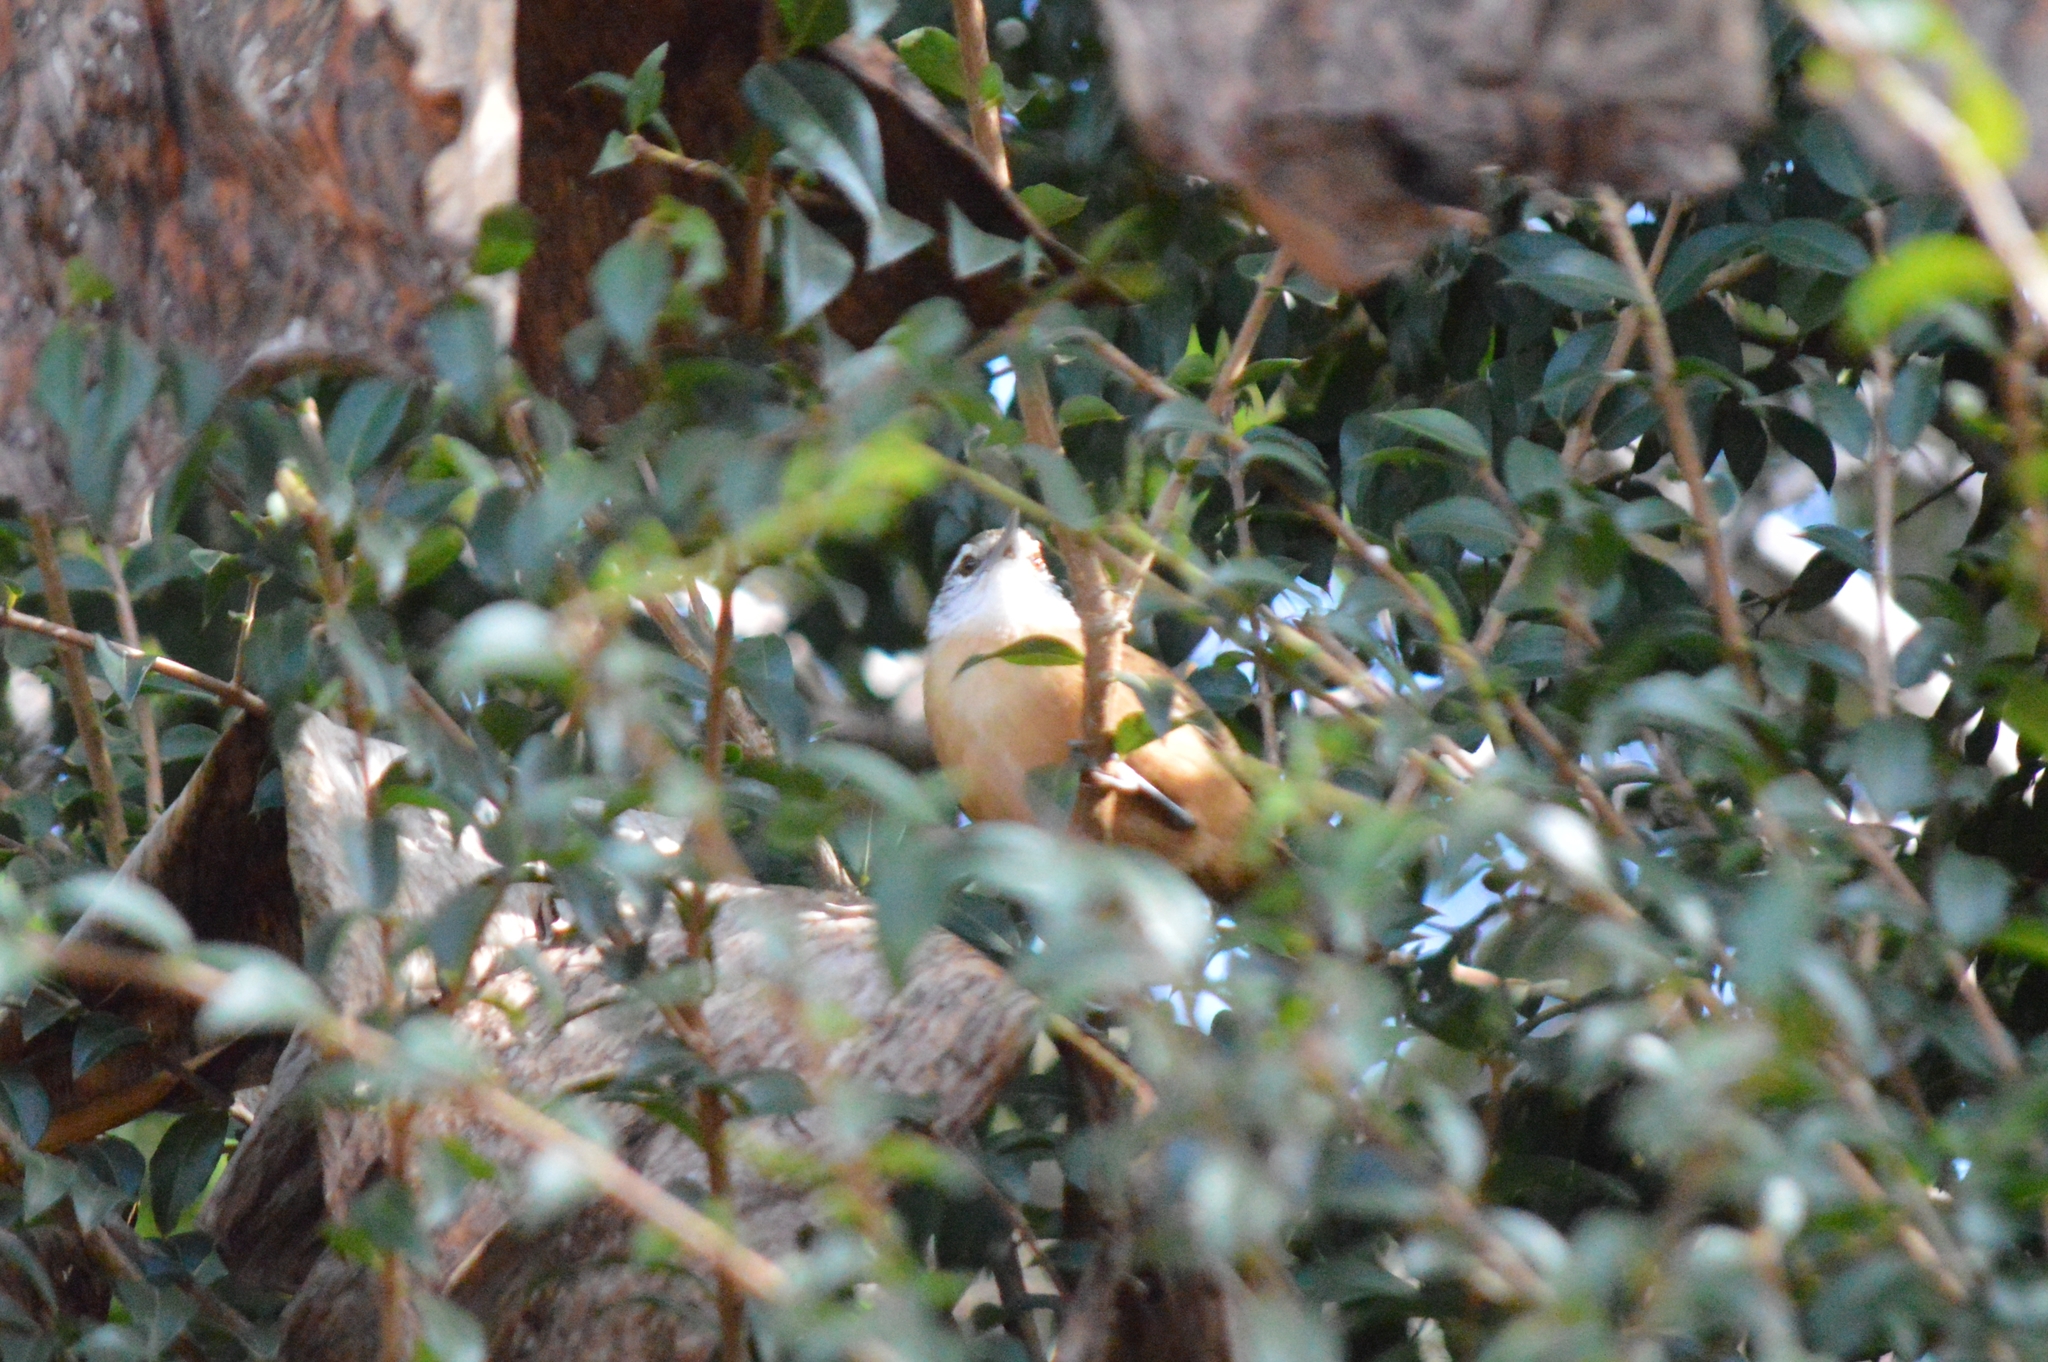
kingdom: Animalia
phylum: Chordata
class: Aves
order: Passeriformes
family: Troglodytidae
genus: Cantorchilus
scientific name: Cantorchilus leucotis
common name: Buff-breasted wren
